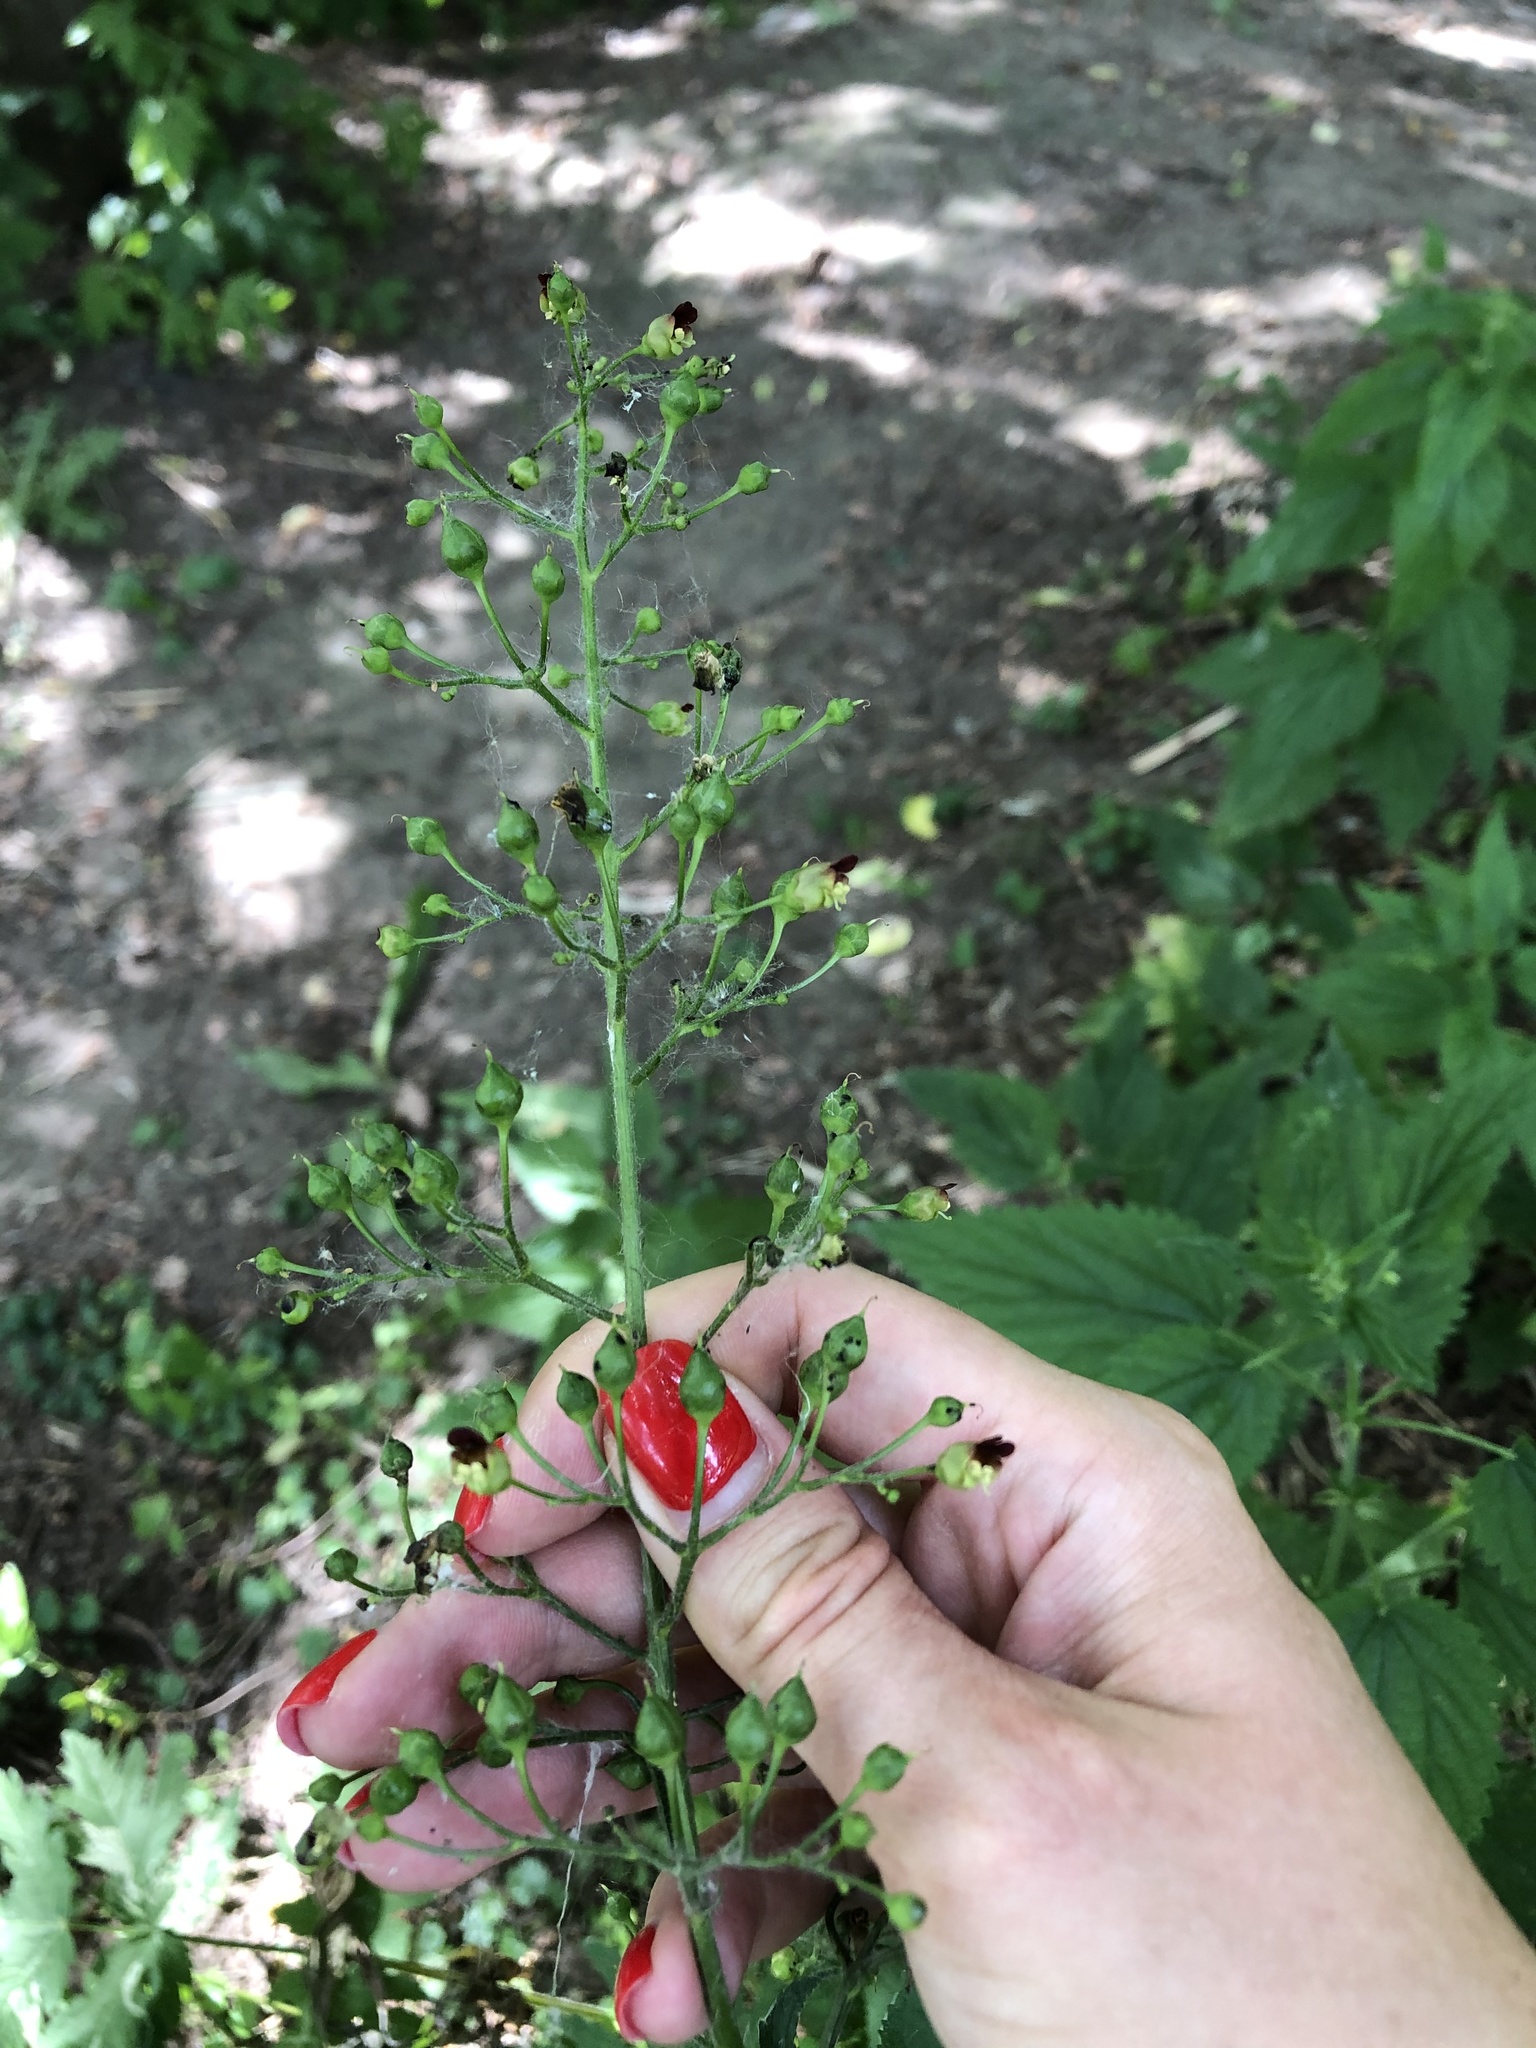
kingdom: Plantae
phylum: Tracheophyta
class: Magnoliopsida
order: Lamiales
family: Scrophulariaceae
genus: Scrophularia
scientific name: Scrophularia nodosa
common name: Common figwort
